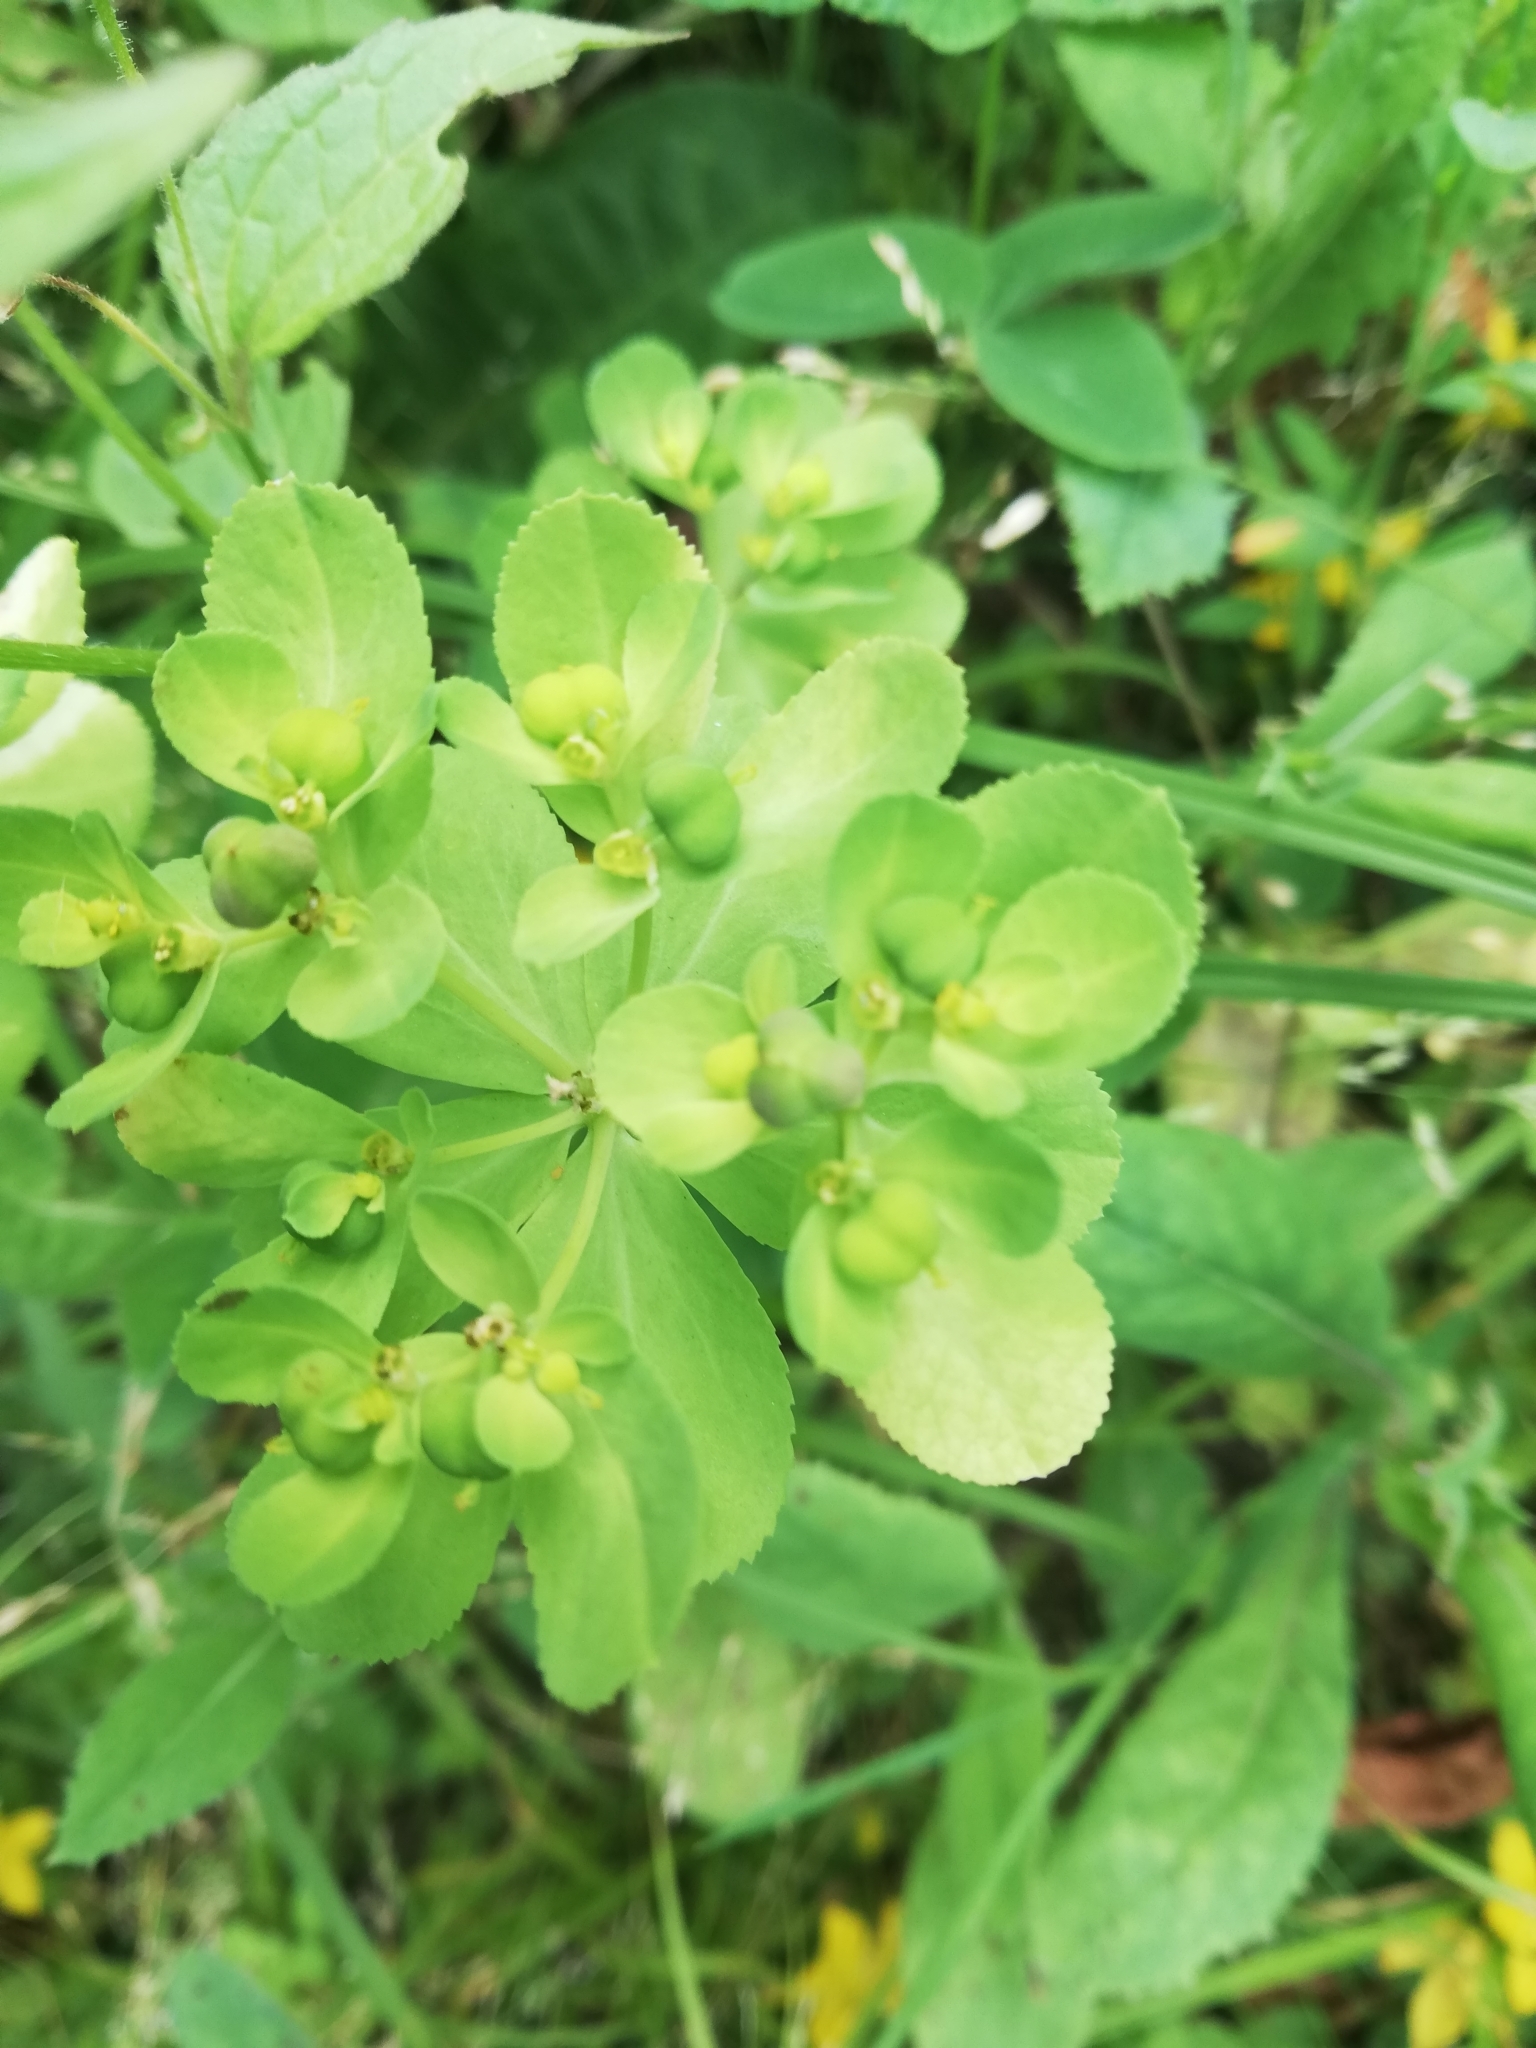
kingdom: Plantae
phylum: Tracheophyta
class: Magnoliopsida
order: Malpighiales
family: Euphorbiaceae
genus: Euphorbia
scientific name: Euphorbia helioscopia
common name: Sun spurge
